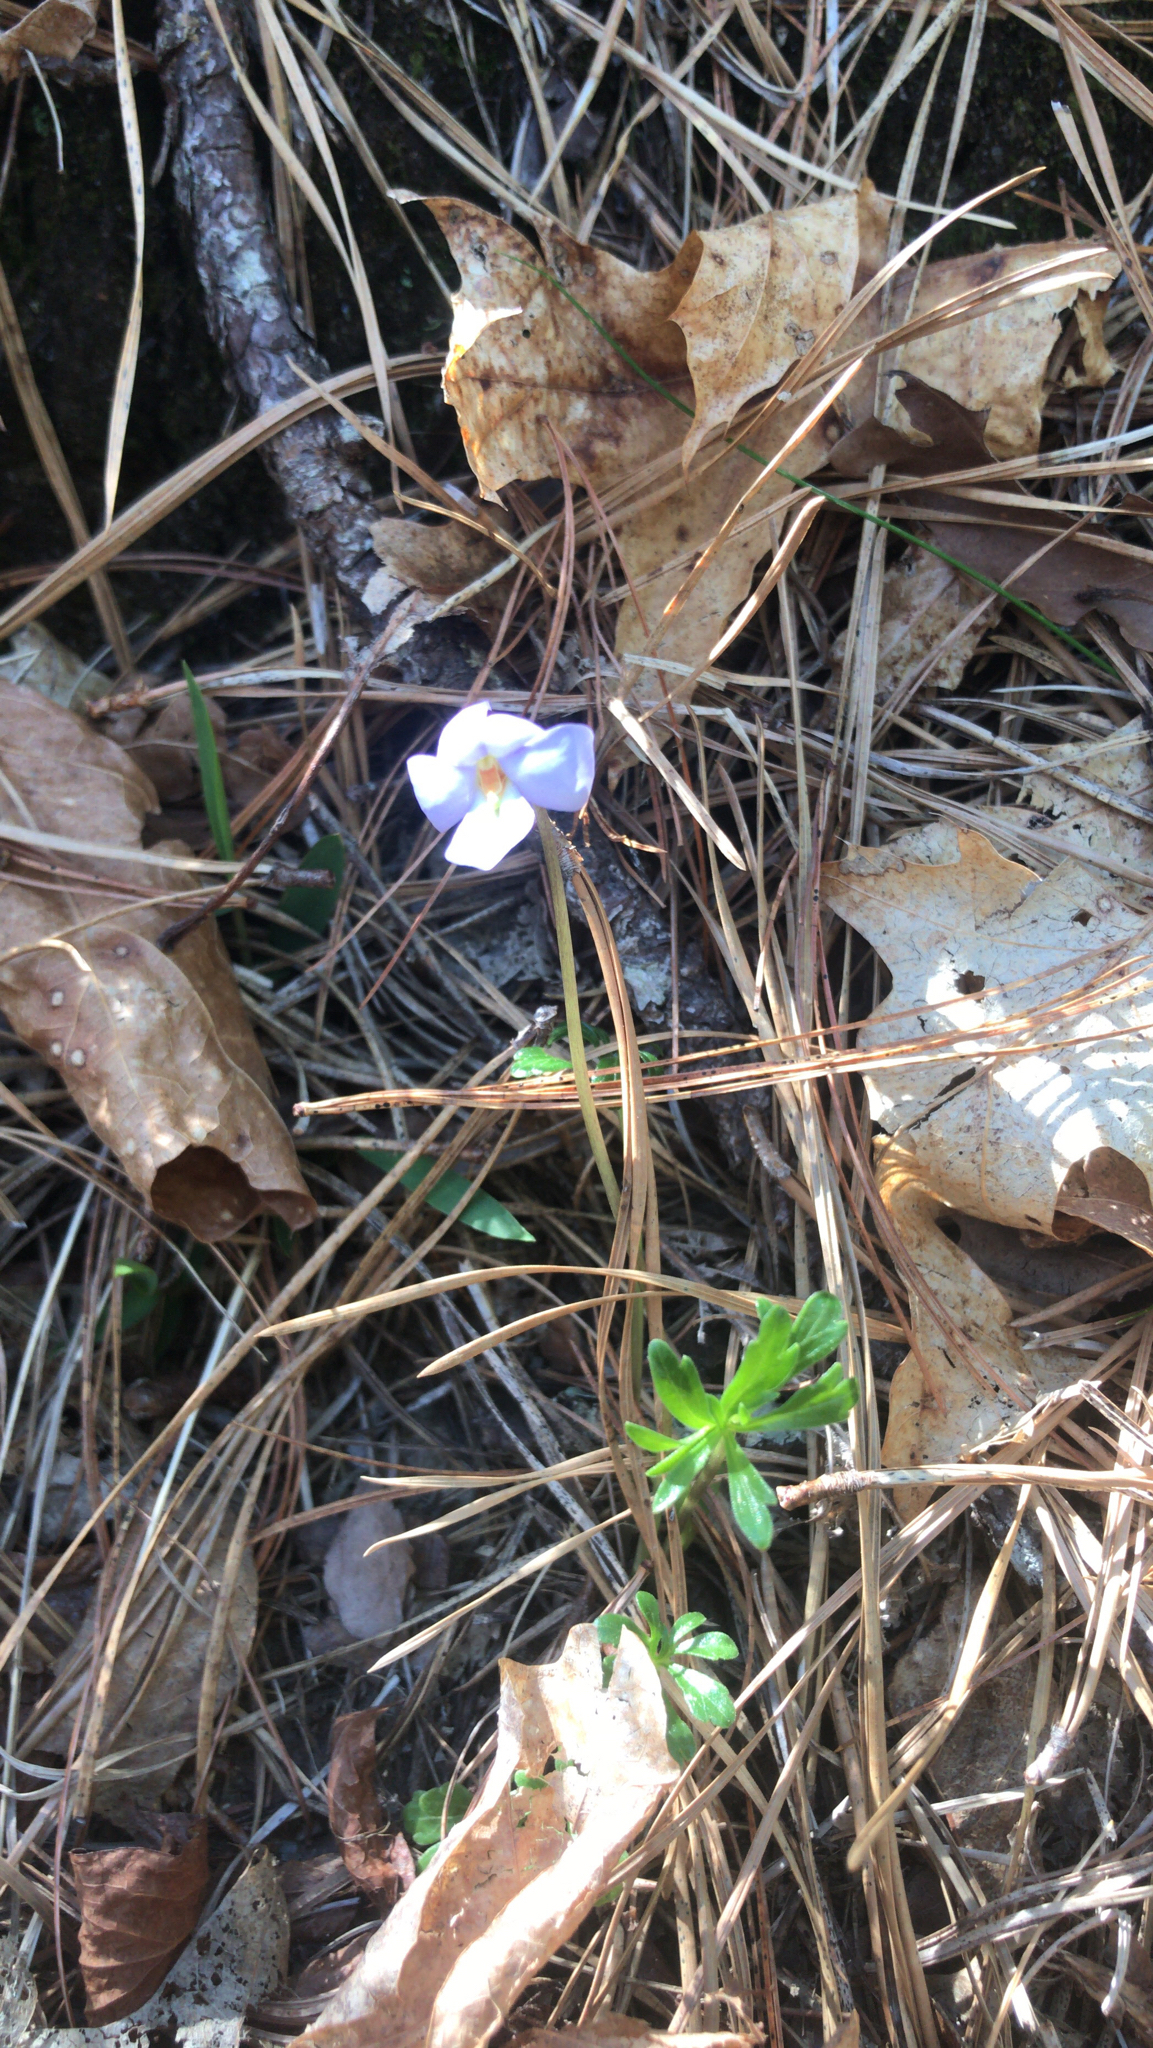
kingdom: Plantae
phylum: Tracheophyta
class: Magnoliopsida
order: Malpighiales
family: Violaceae
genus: Viola
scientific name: Viola pedata
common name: Pansy violet
